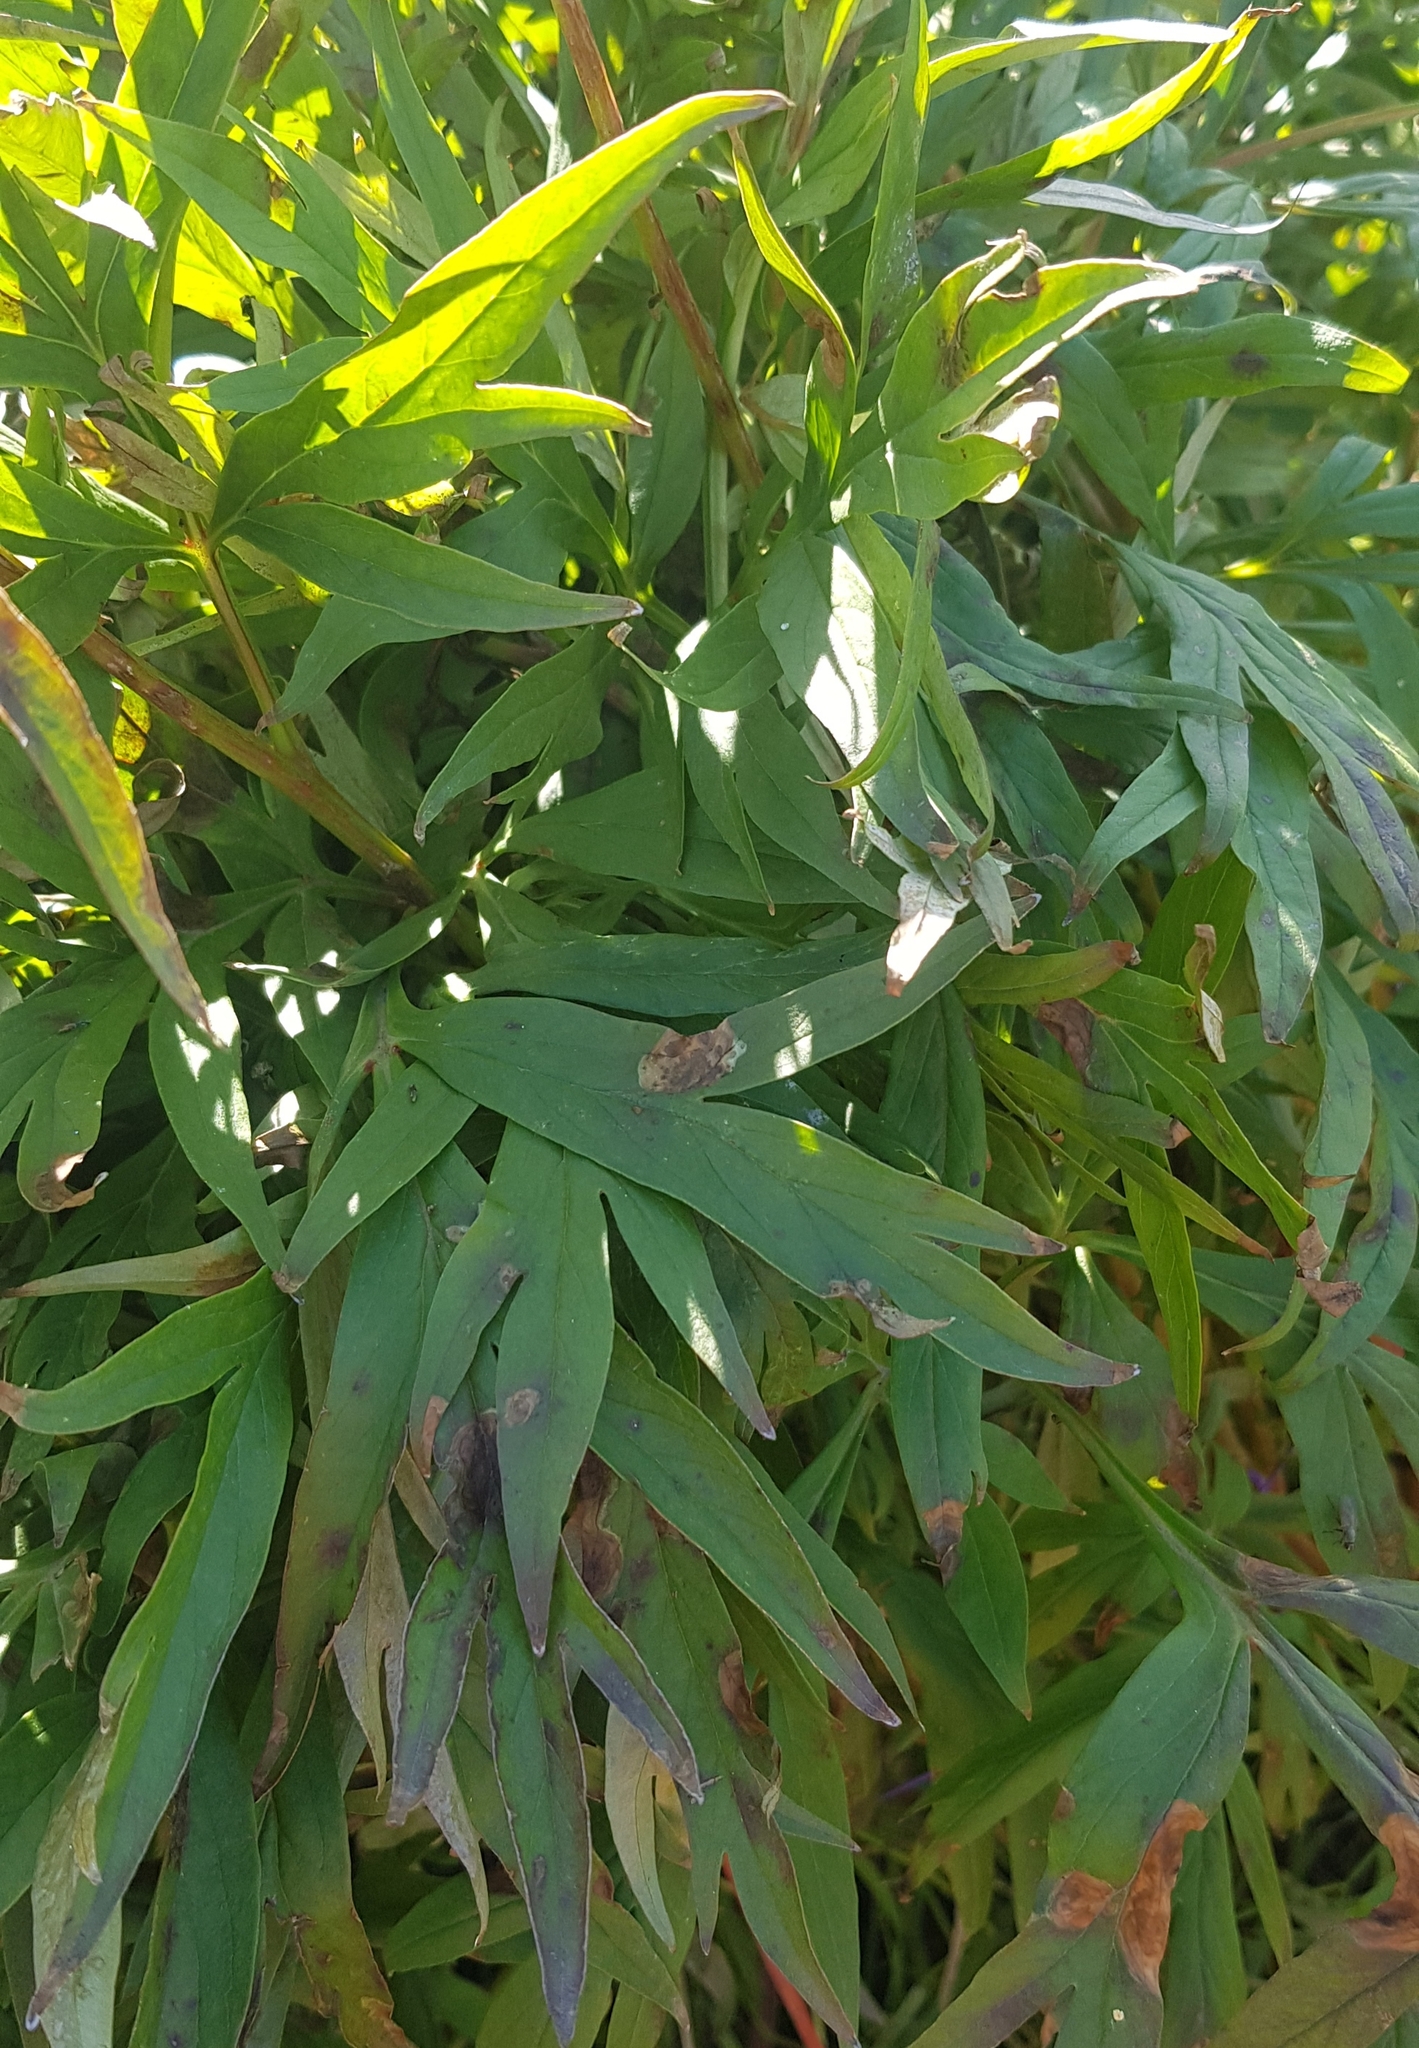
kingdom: Plantae
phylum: Tracheophyta
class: Magnoliopsida
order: Saxifragales
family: Paeoniaceae
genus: Paeonia
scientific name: Paeonia anomala
